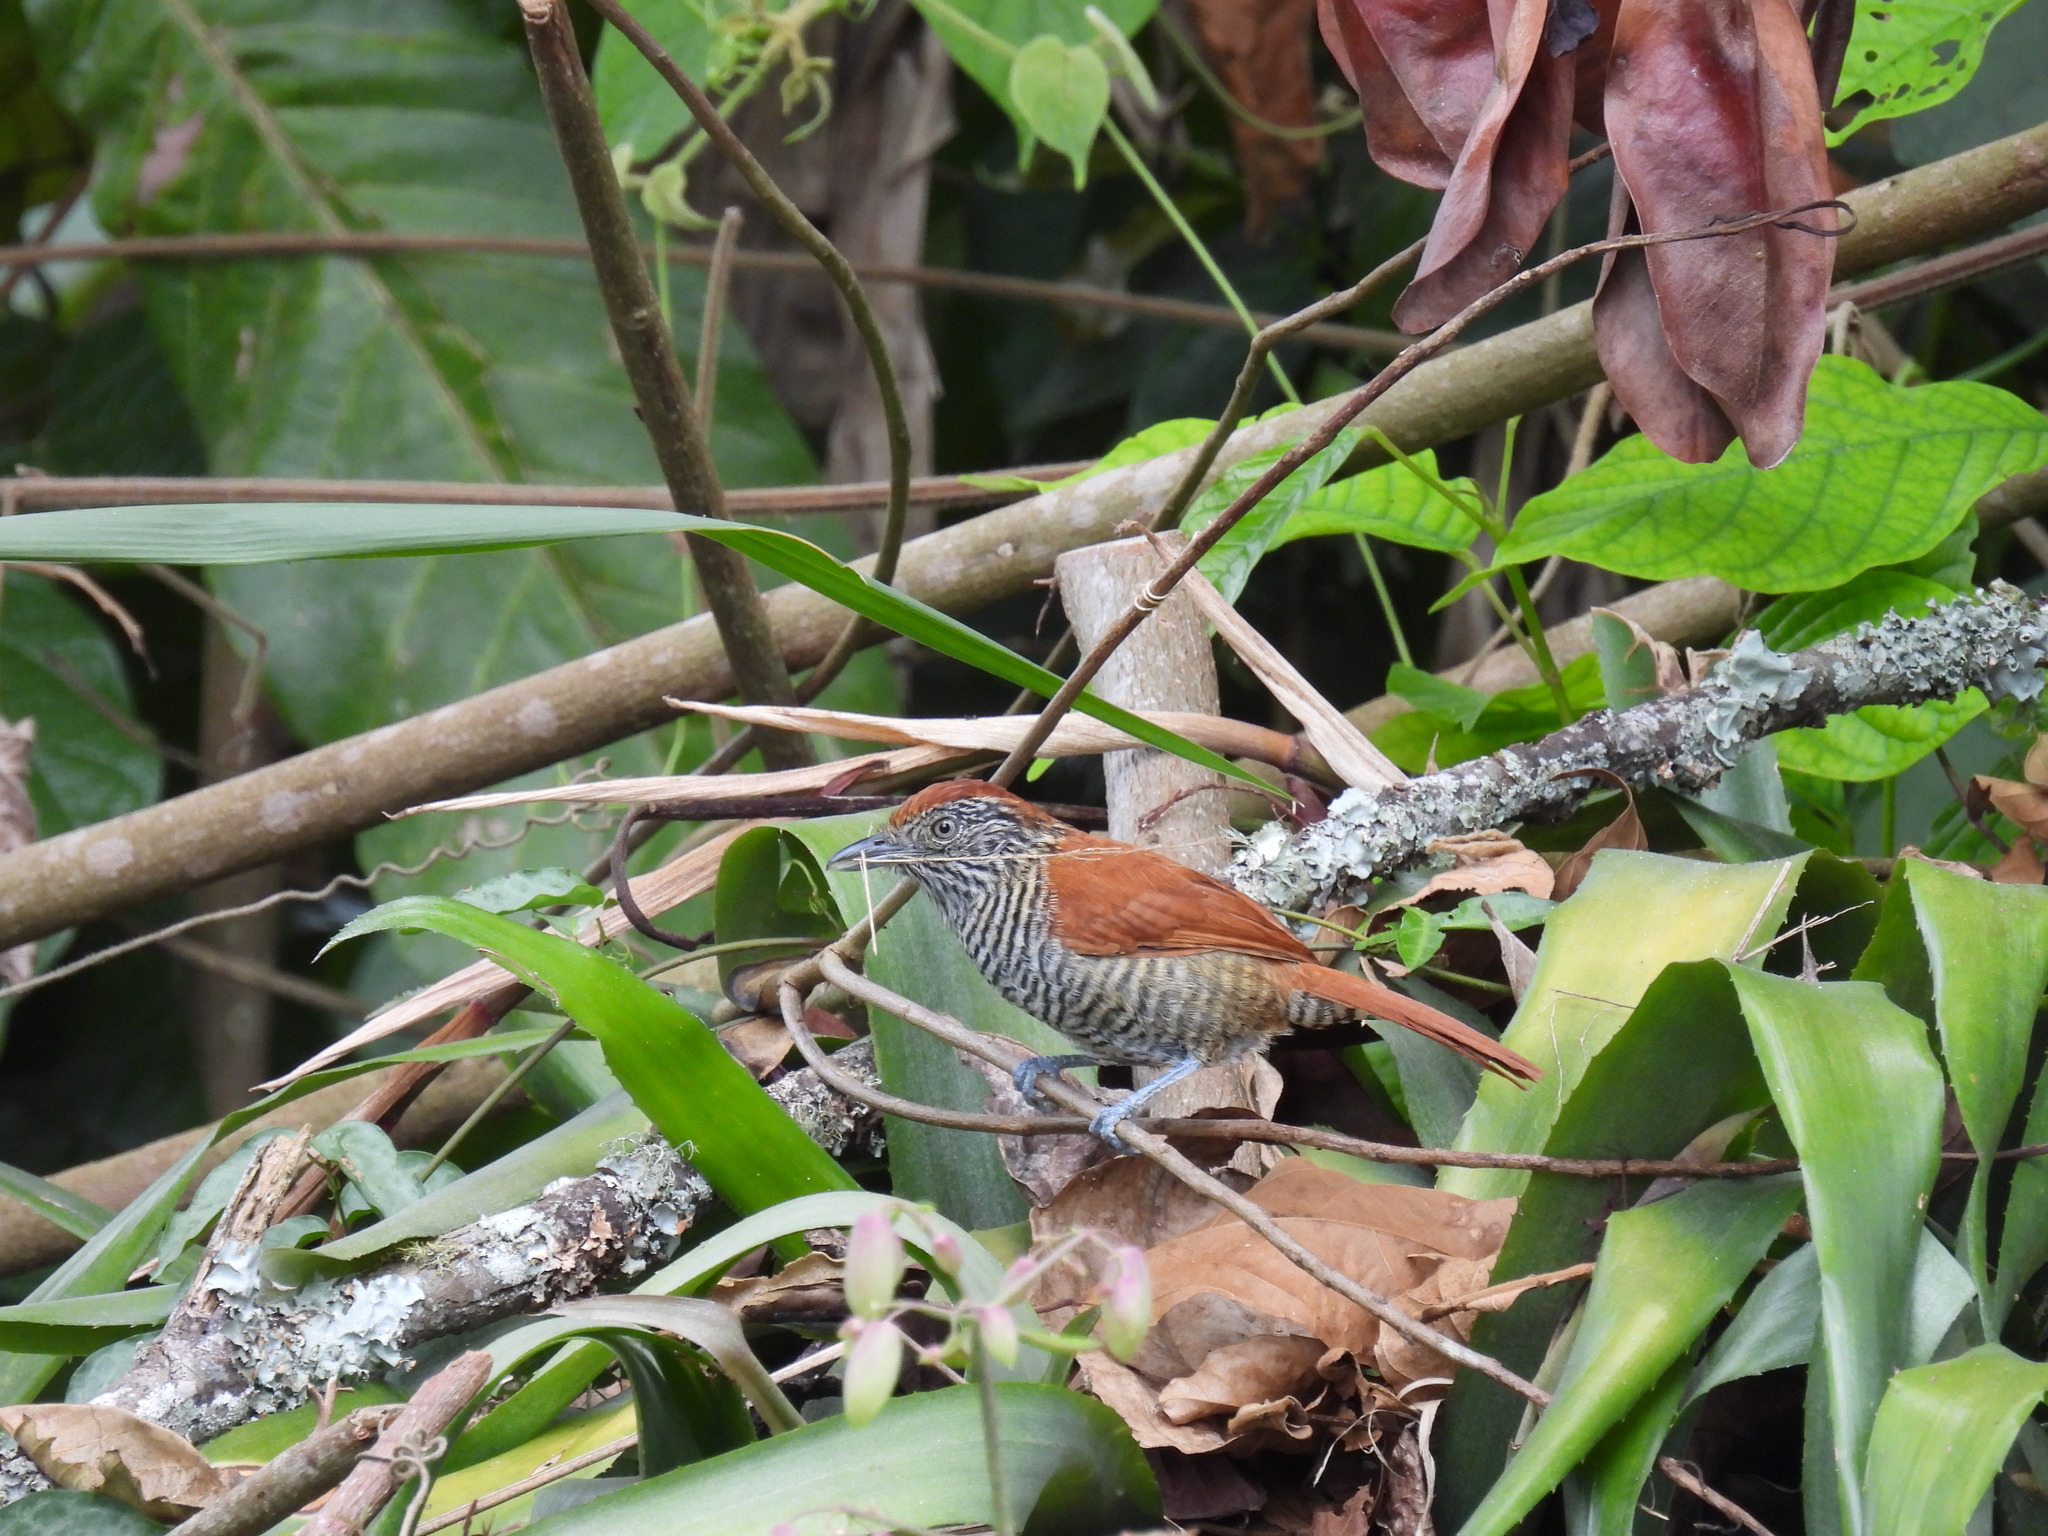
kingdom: Animalia
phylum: Chordata
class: Aves
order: Passeriformes
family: Thamnophilidae
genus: Thamnophilus
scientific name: Thamnophilus multistriatus
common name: Bar-crested antshrike
